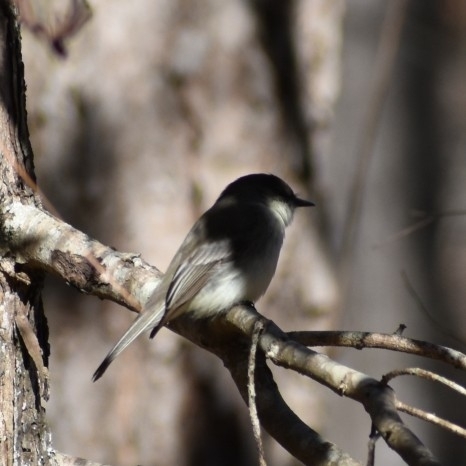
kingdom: Animalia
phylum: Chordata
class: Aves
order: Passeriformes
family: Tyrannidae
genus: Sayornis
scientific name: Sayornis phoebe
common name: Eastern phoebe
